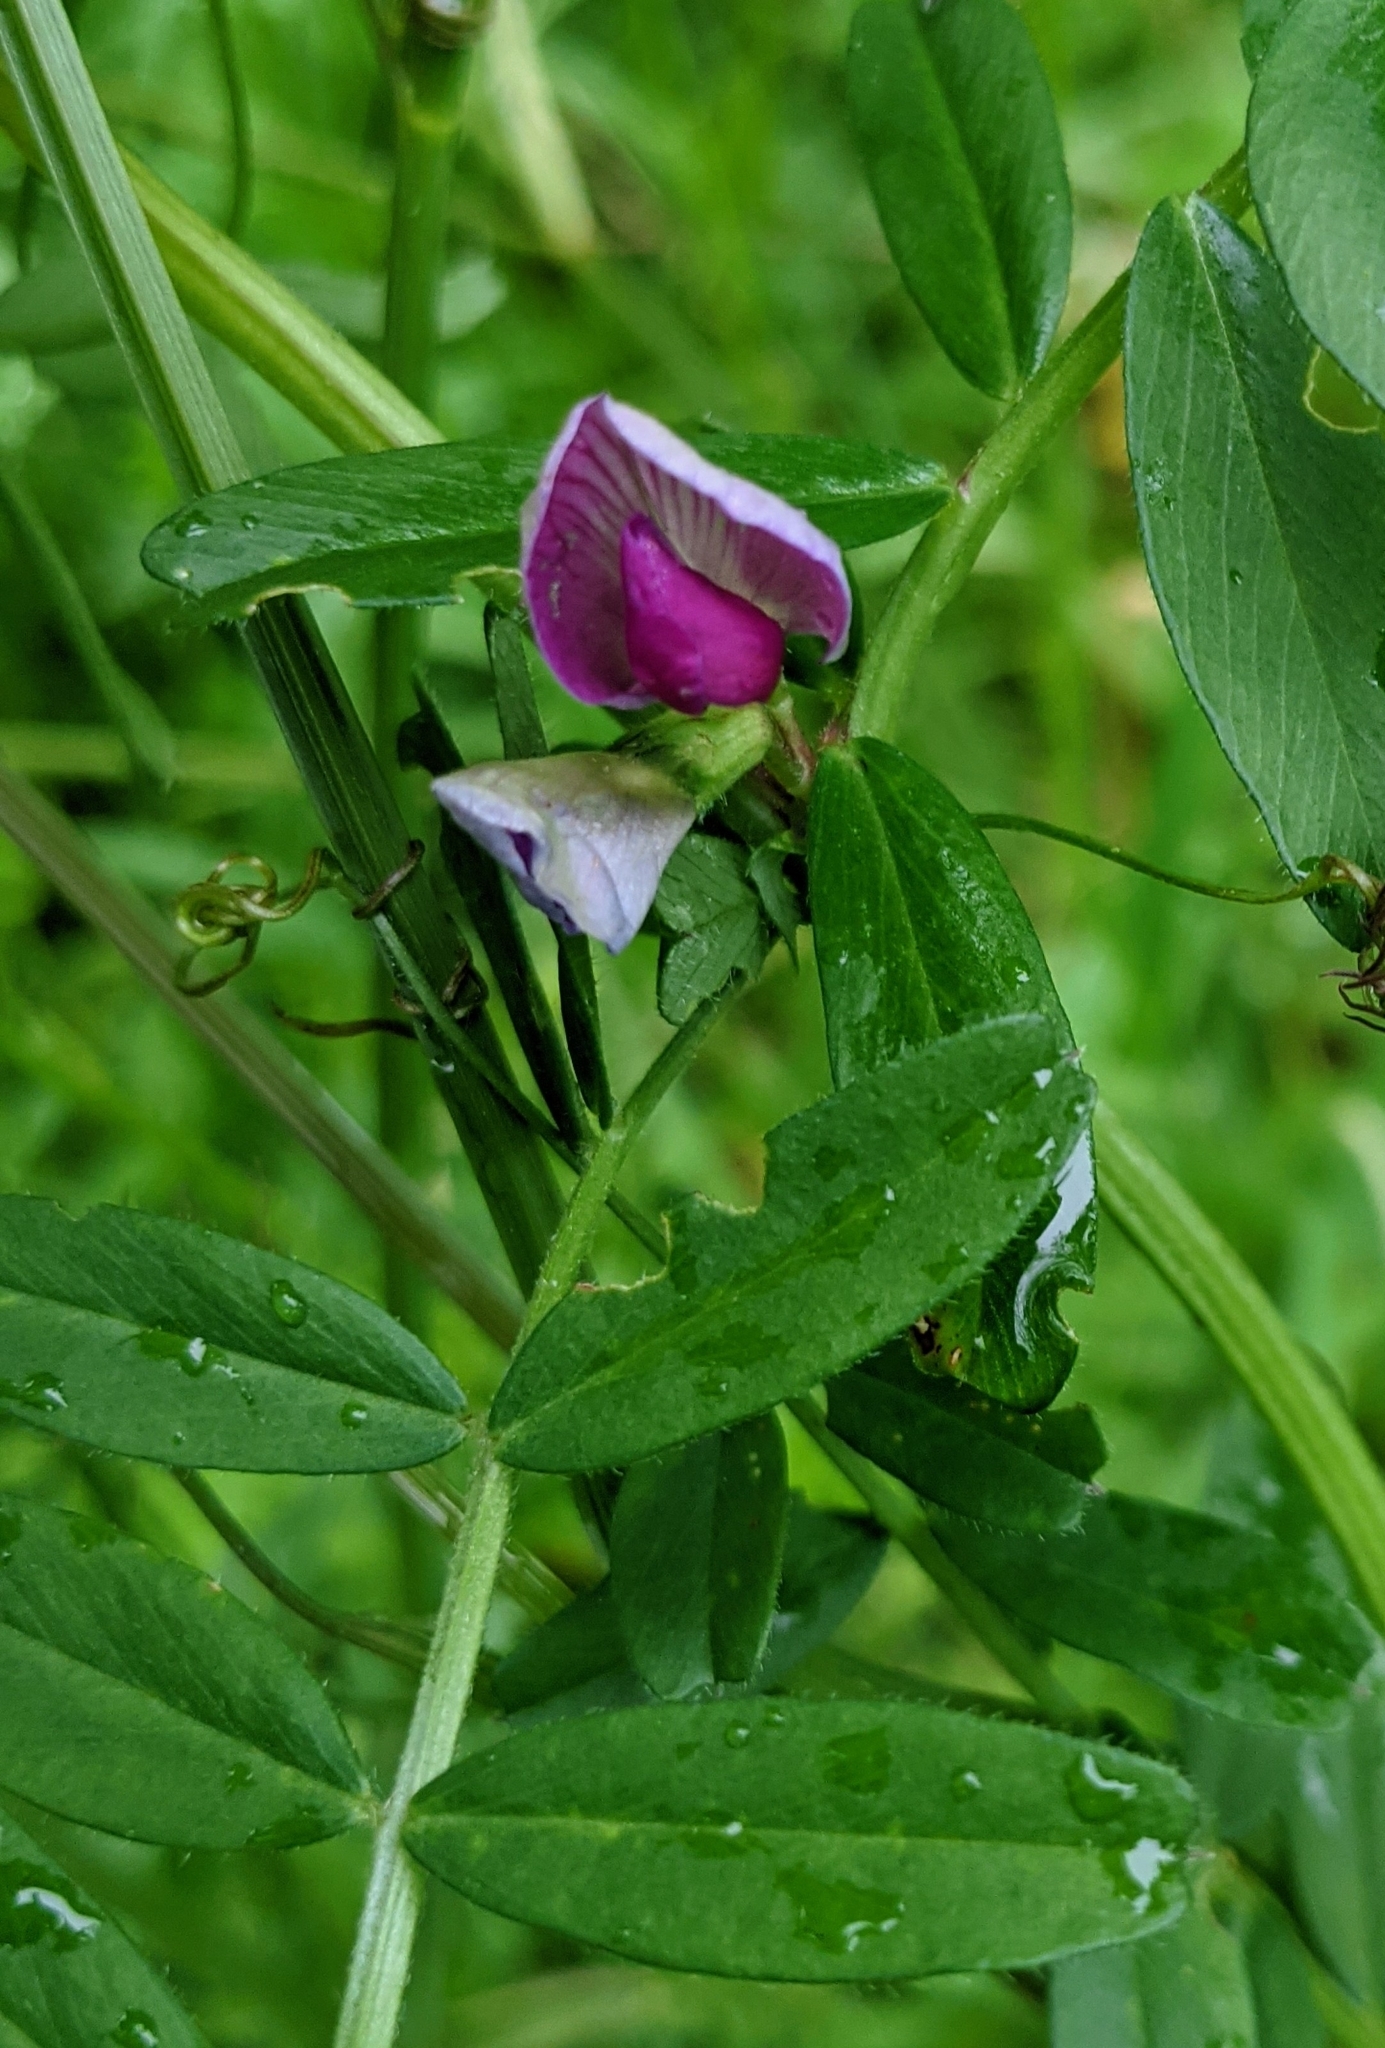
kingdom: Plantae
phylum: Tracheophyta
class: Magnoliopsida
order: Fabales
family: Fabaceae
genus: Vicia
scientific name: Vicia sativa
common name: Garden vetch
